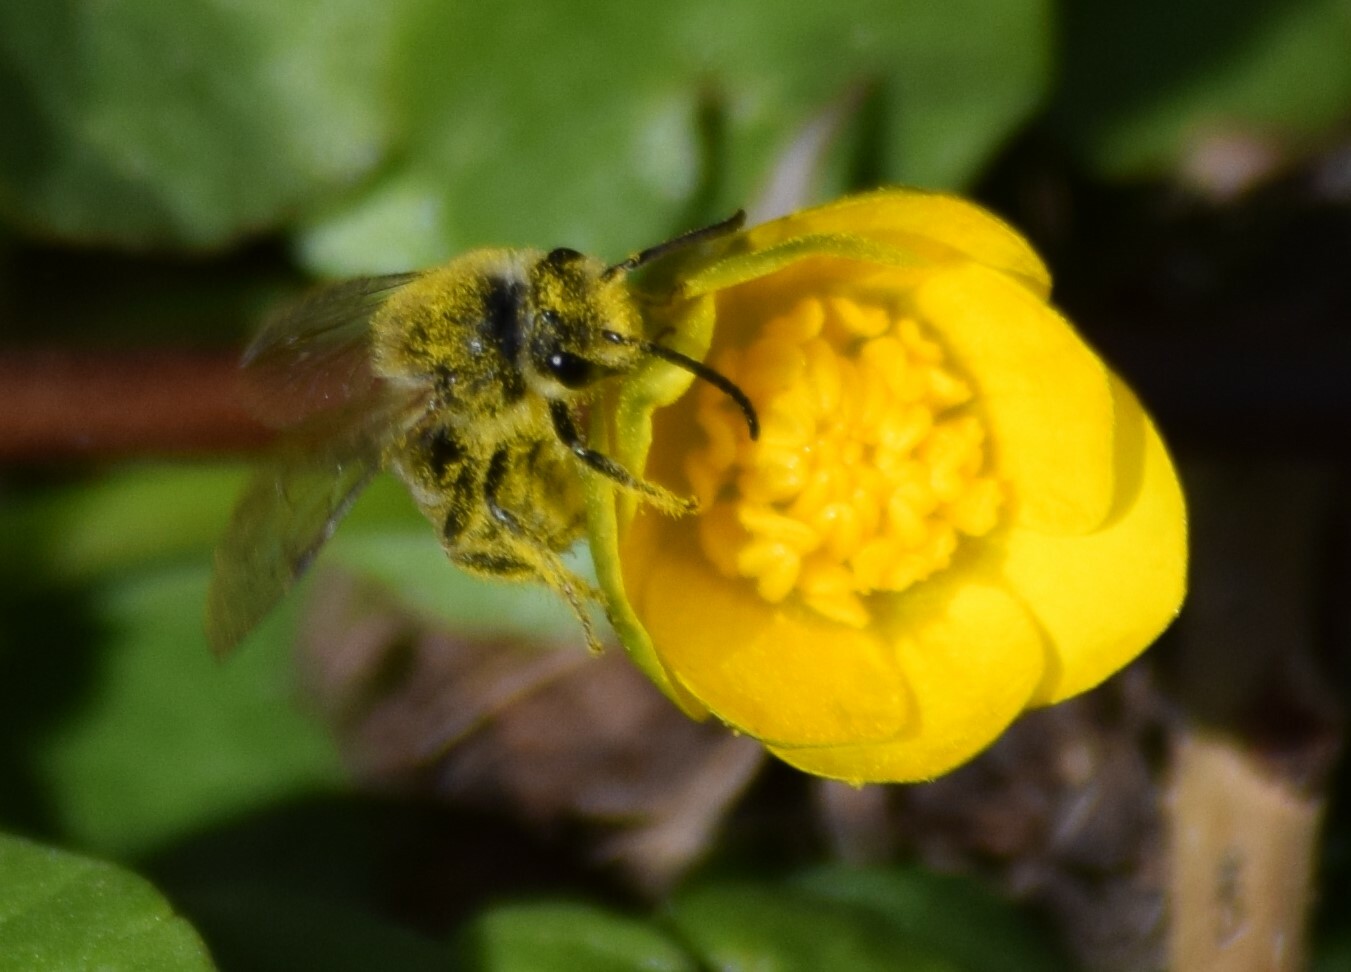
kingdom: Animalia
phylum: Arthropoda
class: Insecta
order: Hymenoptera
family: Colletidae
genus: Colletes
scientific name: Colletes inaequalis
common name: Unequal cellophane bee
